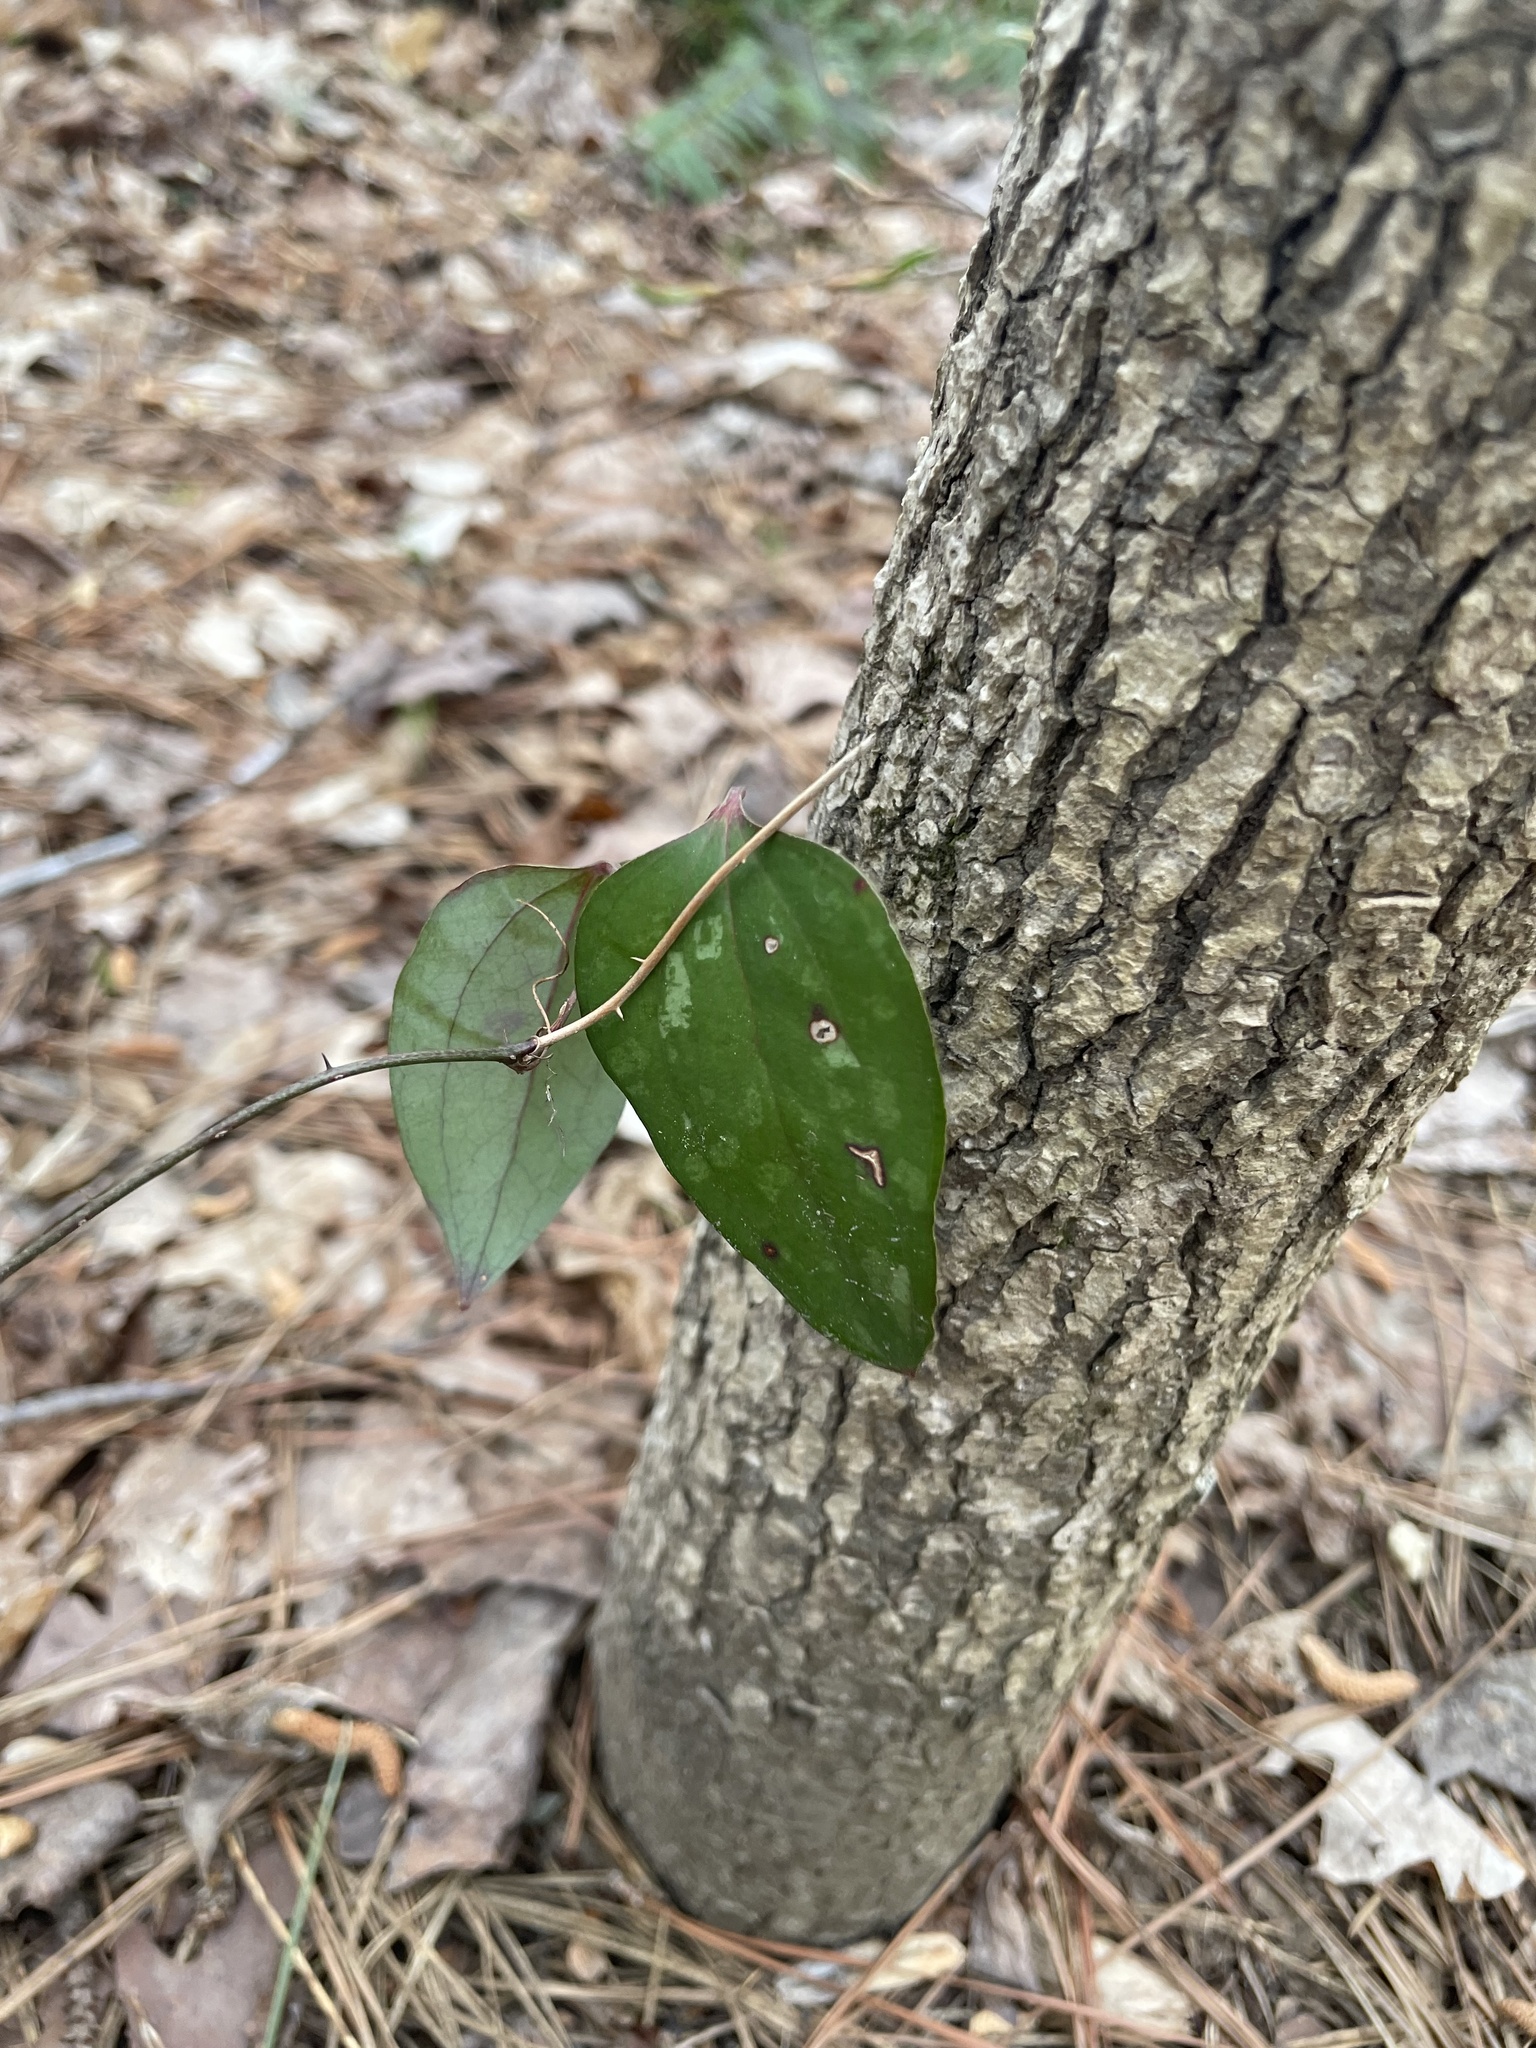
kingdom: Plantae
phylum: Tracheophyta
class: Liliopsida
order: Liliales
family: Smilacaceae
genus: Smilax
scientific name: Smilax glauca
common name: Cat greenbrier
